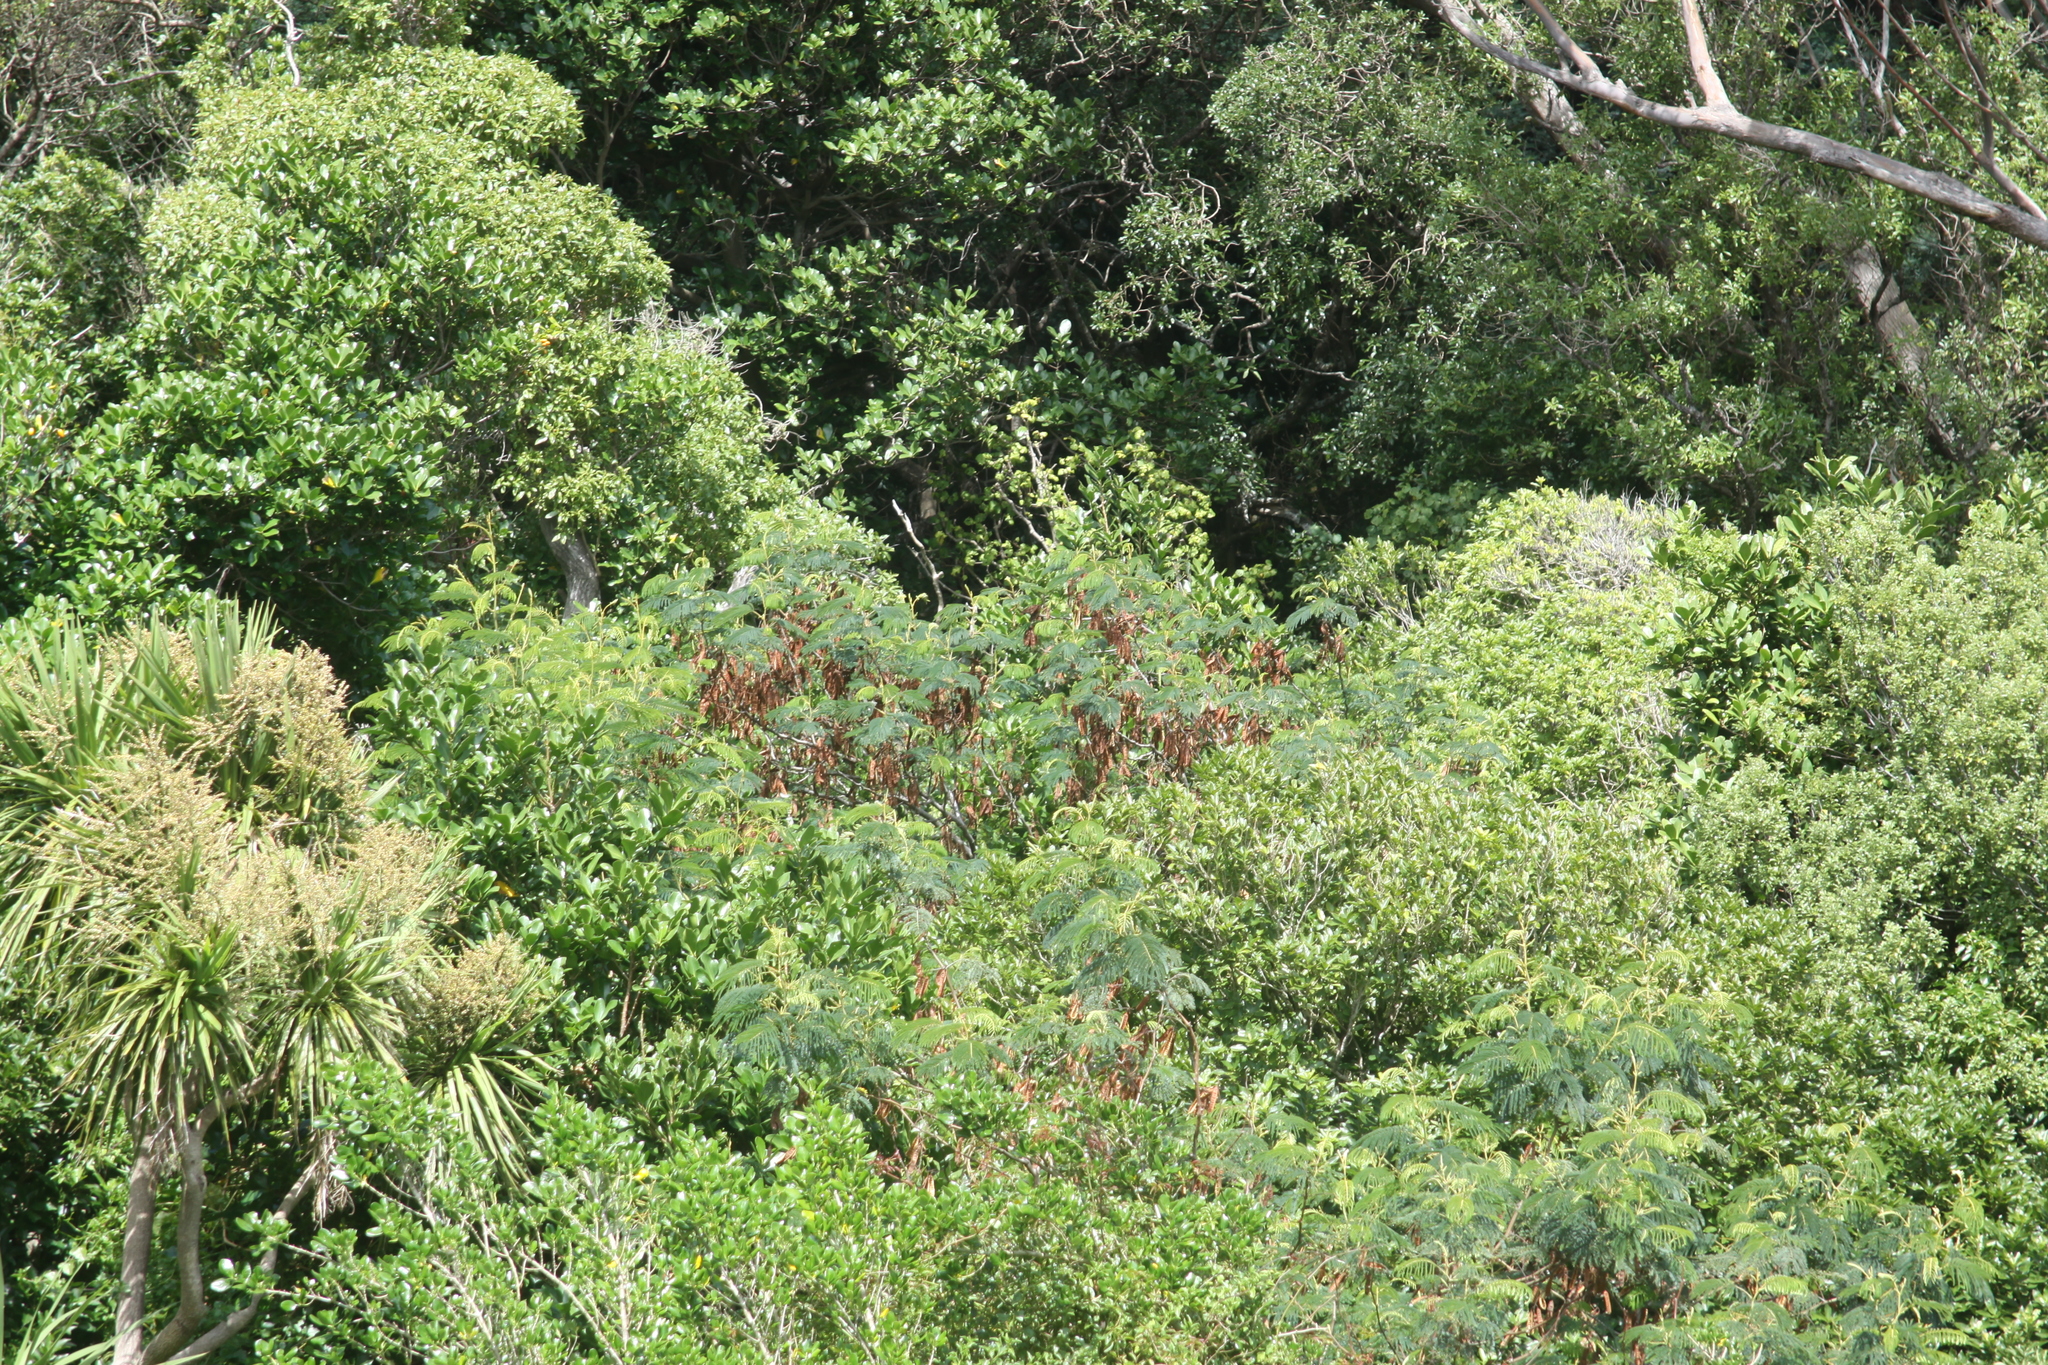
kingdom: Plantae
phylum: Tracheophyta
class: Magnoliopsida
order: Fabales
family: Fabaceae
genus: Paraserianthes
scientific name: Paraserianthes lophantha
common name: Plume albizia
